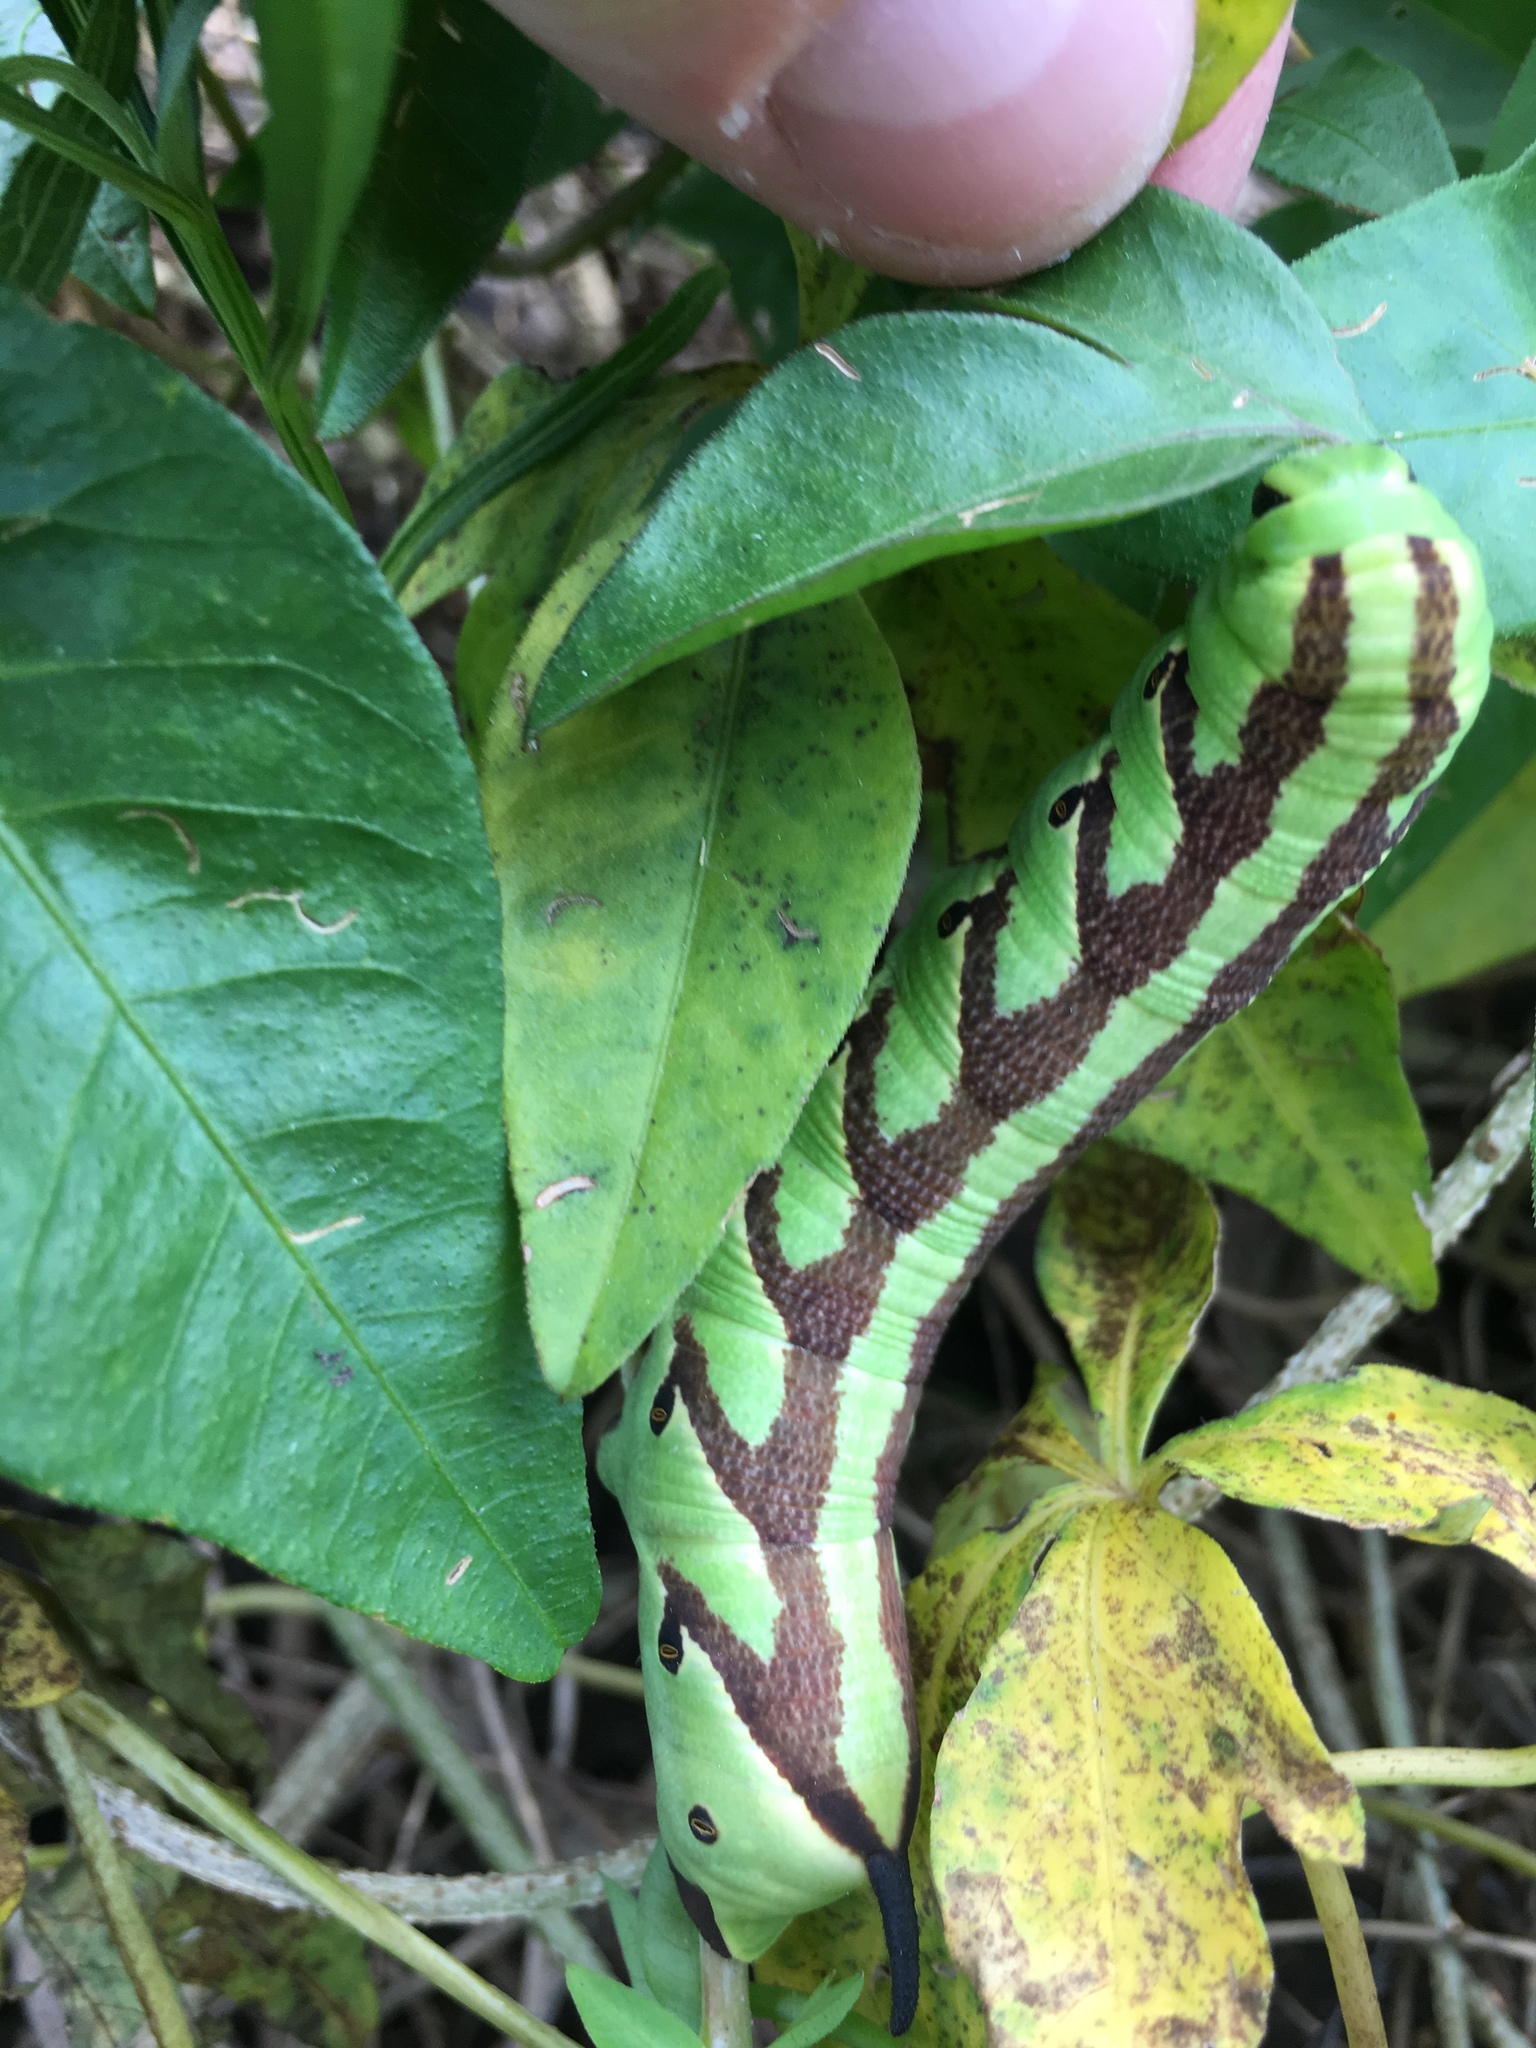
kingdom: Animalia
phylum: Arthropoda
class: Insecta
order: Lepidoptera
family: Sphingidae
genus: Agrius
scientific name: Agrius cingulata
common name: Pink-spotted hawkmoth
